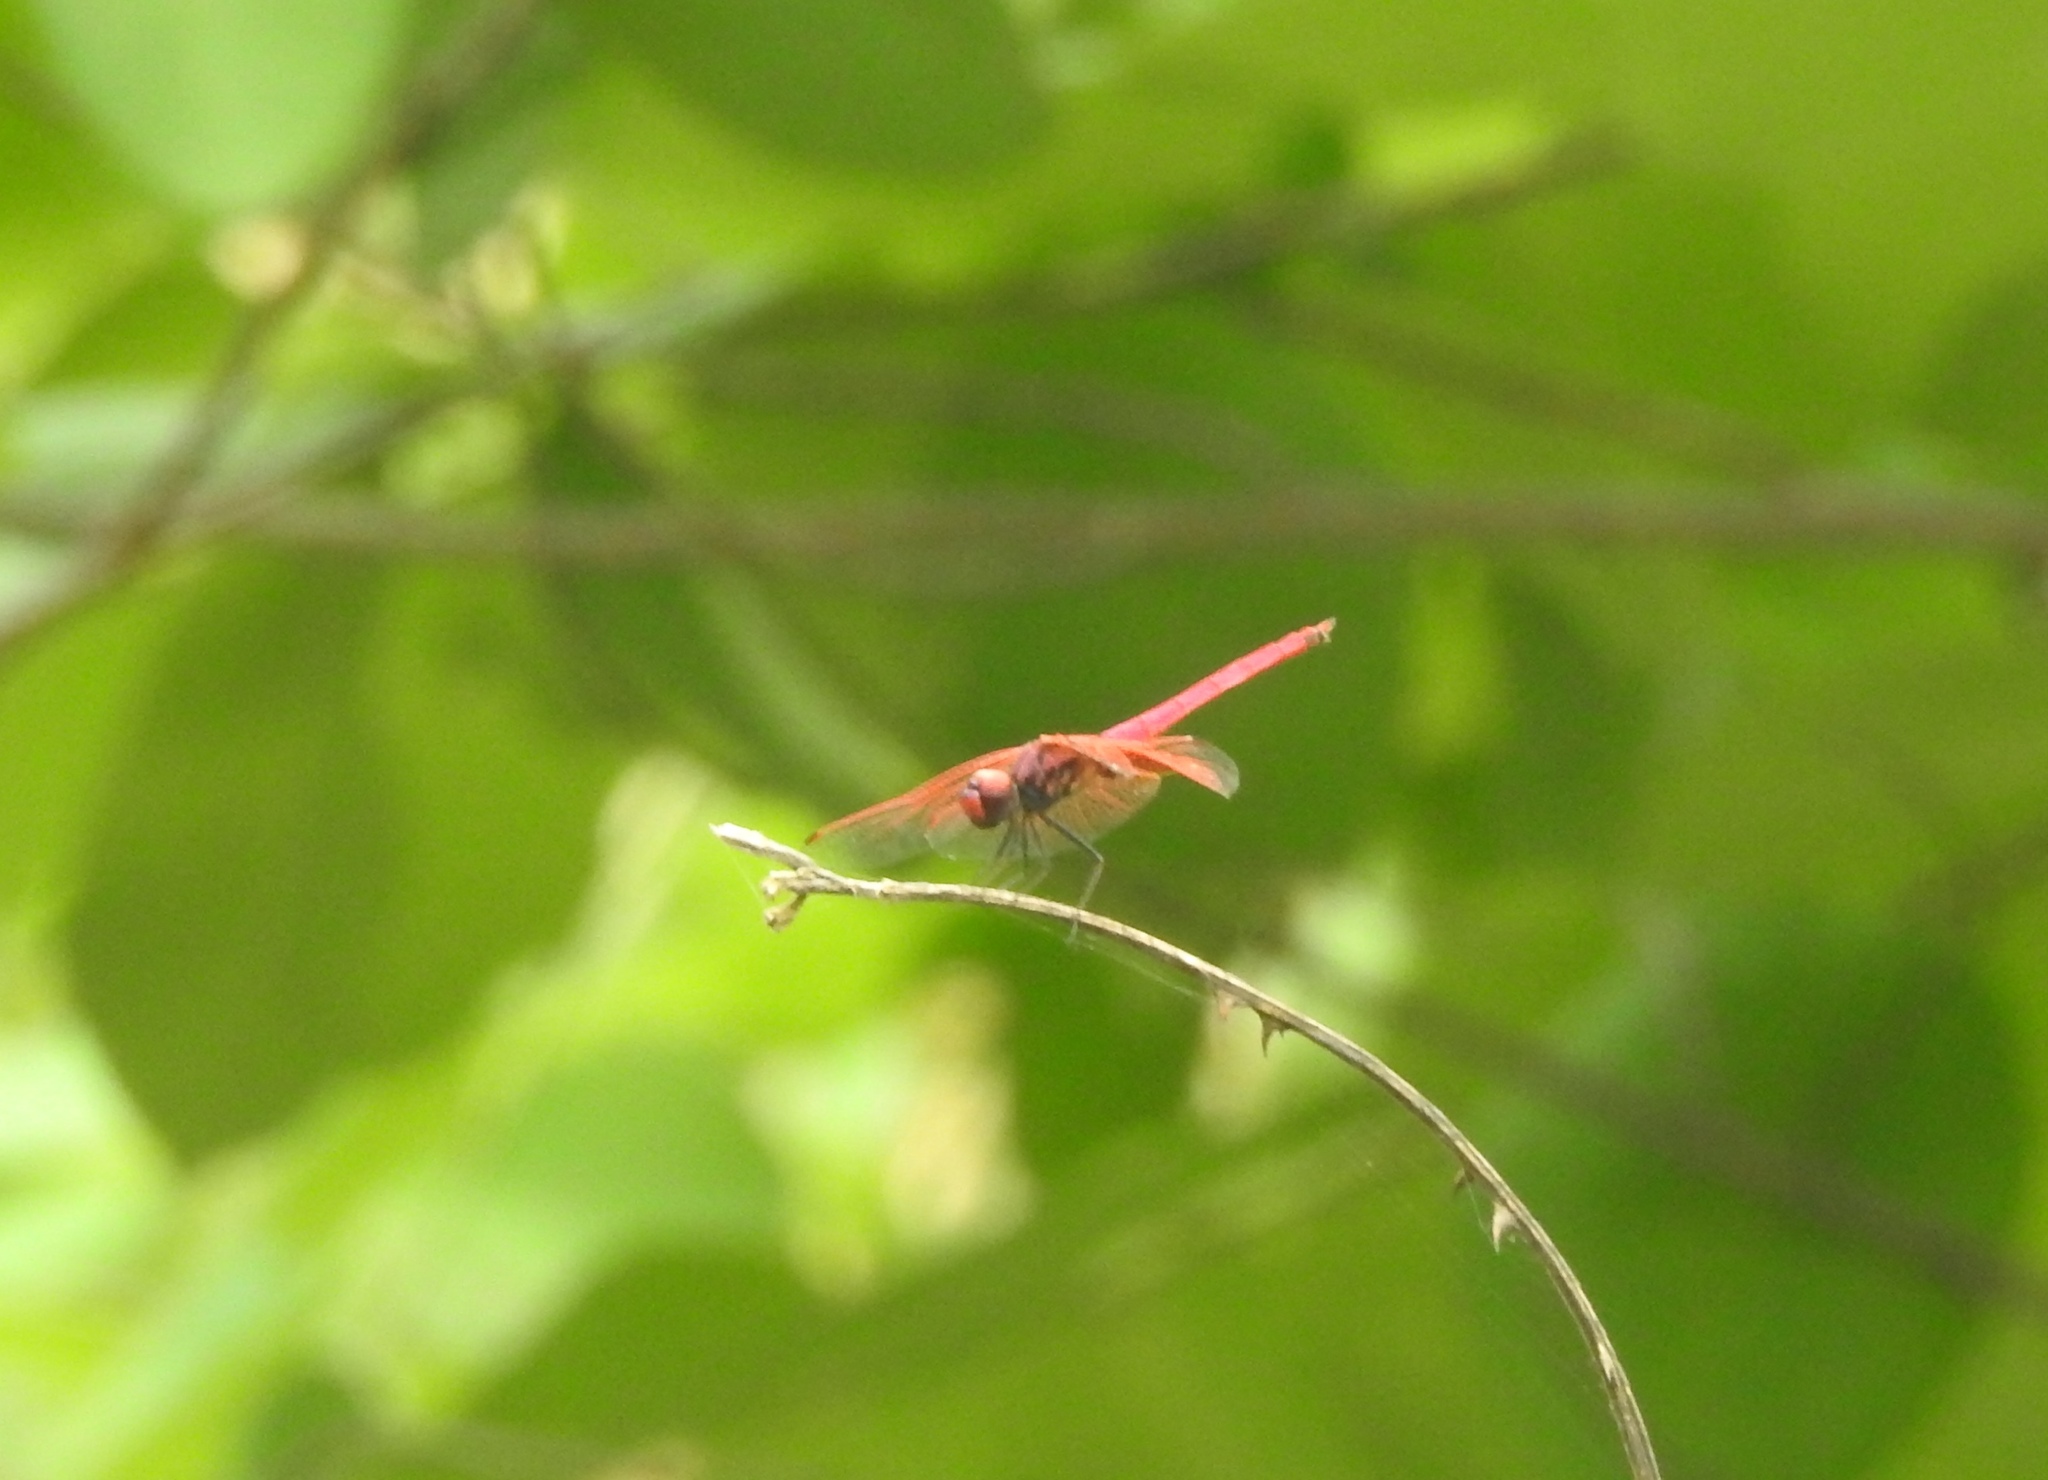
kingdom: Animalia
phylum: Arthropoda
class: Insecta
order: Odonata
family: Libellulidae
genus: Trithemis
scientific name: Trithemis aurora
